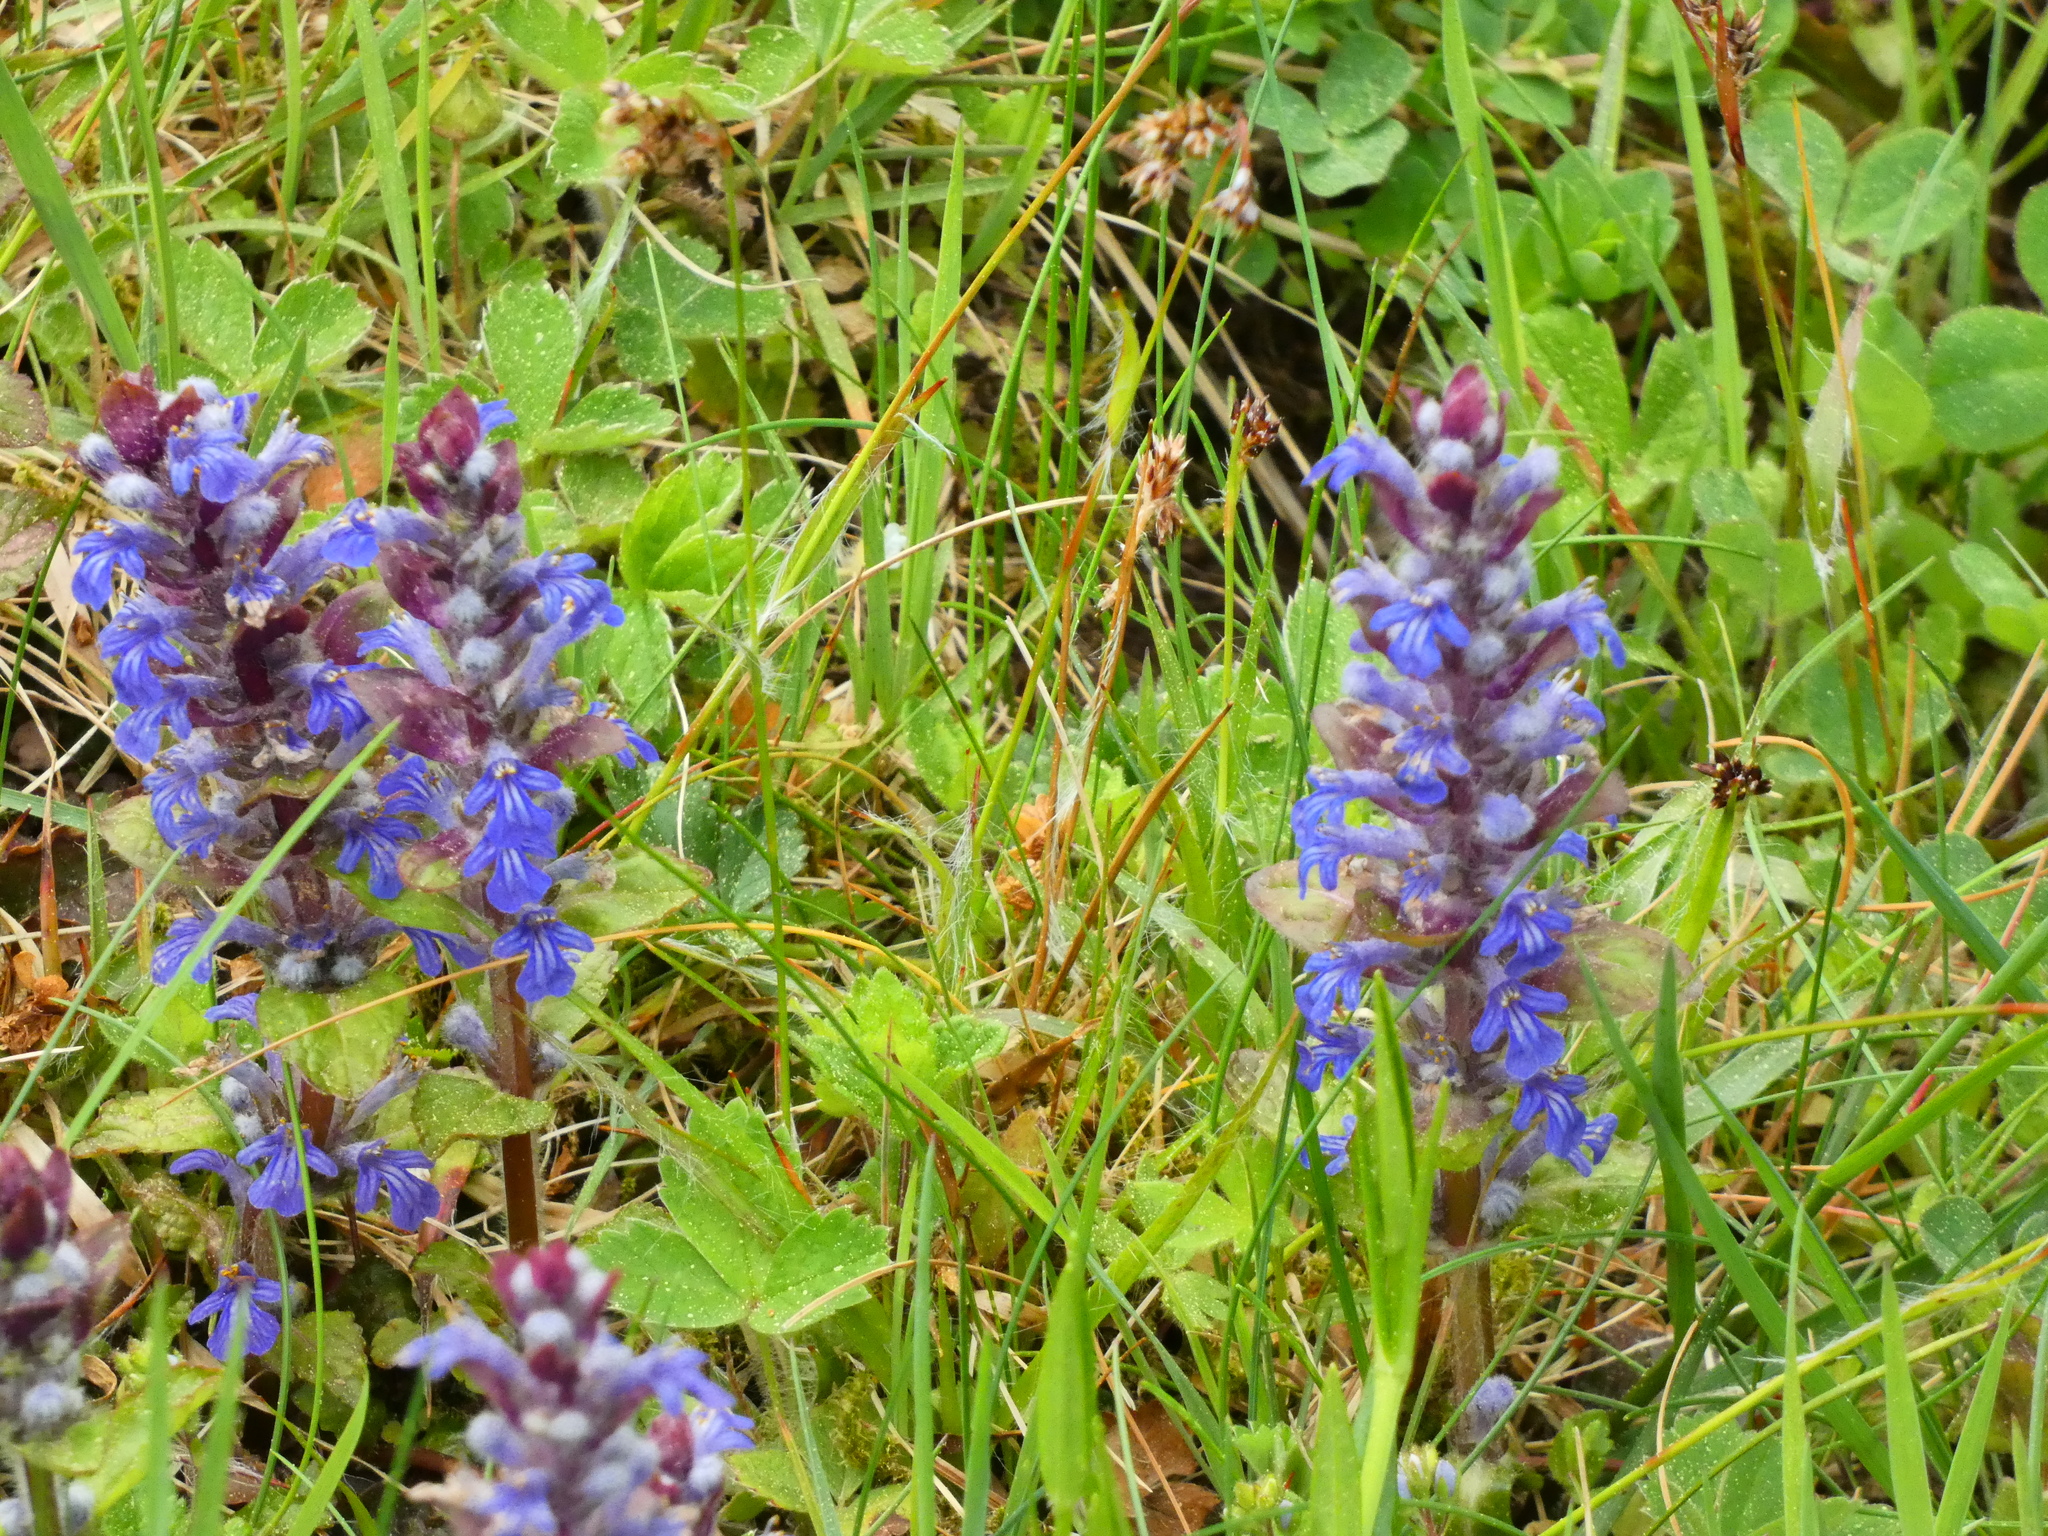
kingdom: Plantae
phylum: Tracheophyta
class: Magnoliopsida
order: Lamiales
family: Lamiaceae
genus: Ajuga
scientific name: Ajuga reptans
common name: Bugle
